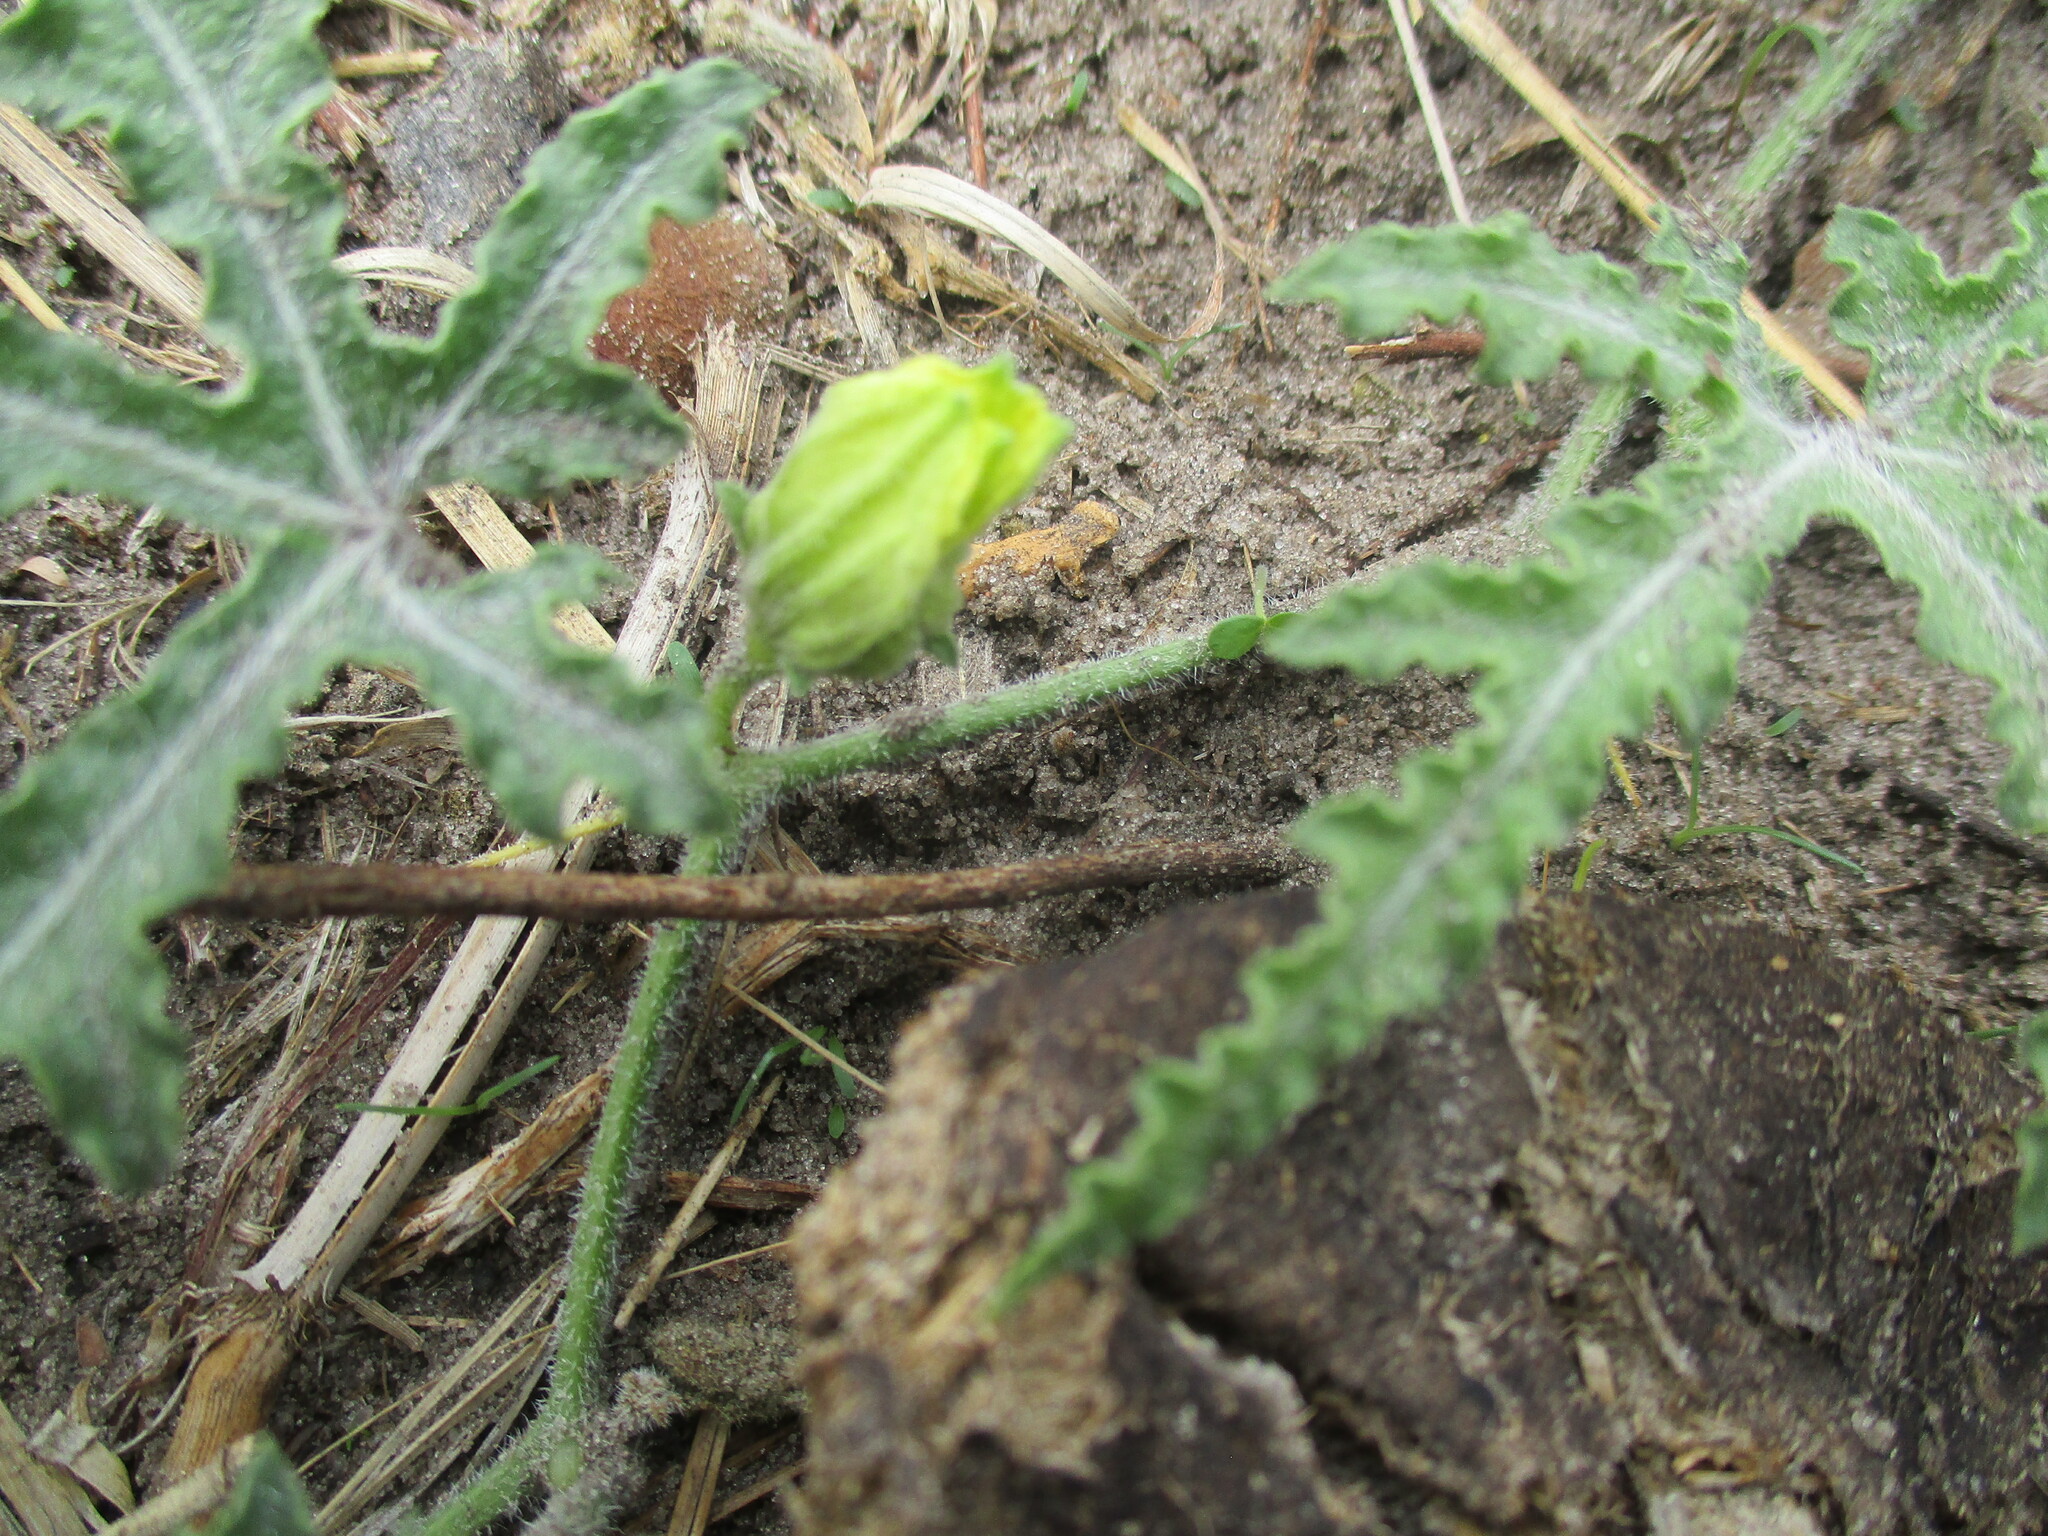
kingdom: Plantae
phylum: Tracheophyta
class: Magnoliopsida
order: Cucurbitales
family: Cucurbitaceae
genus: Citrullus
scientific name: Citrullus naudinianus
